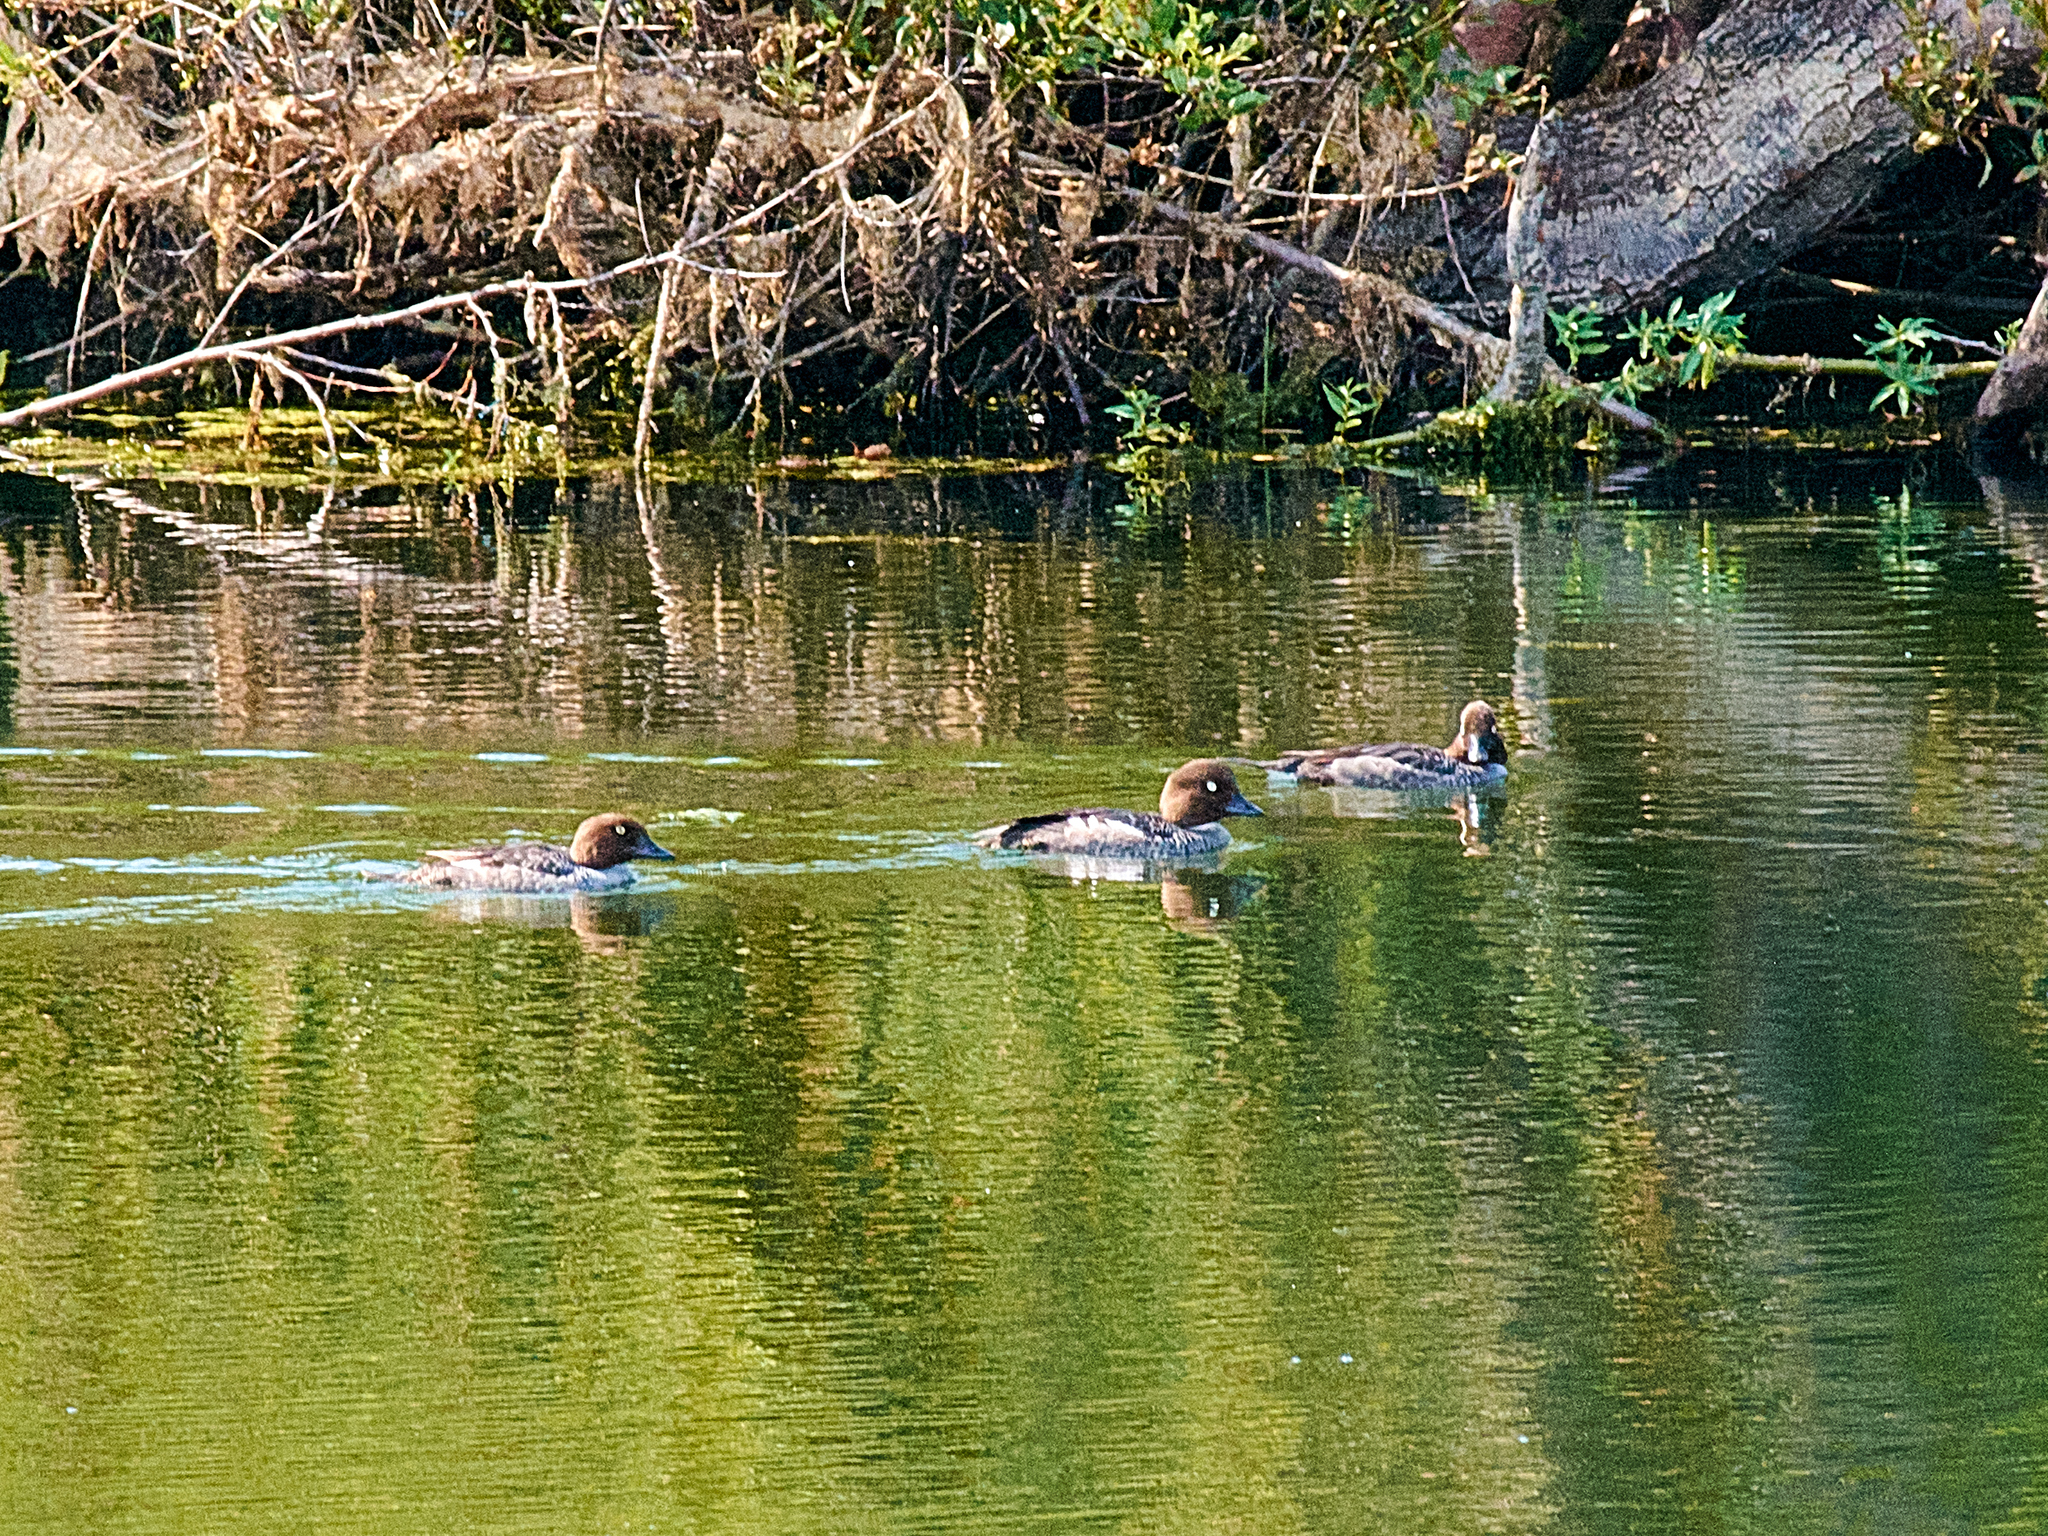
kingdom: Animalia
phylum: Chordata
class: Aves
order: Anseriformes
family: Anatidae
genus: Bucephala
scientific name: Bucephala clangula
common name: Common goldeneye
